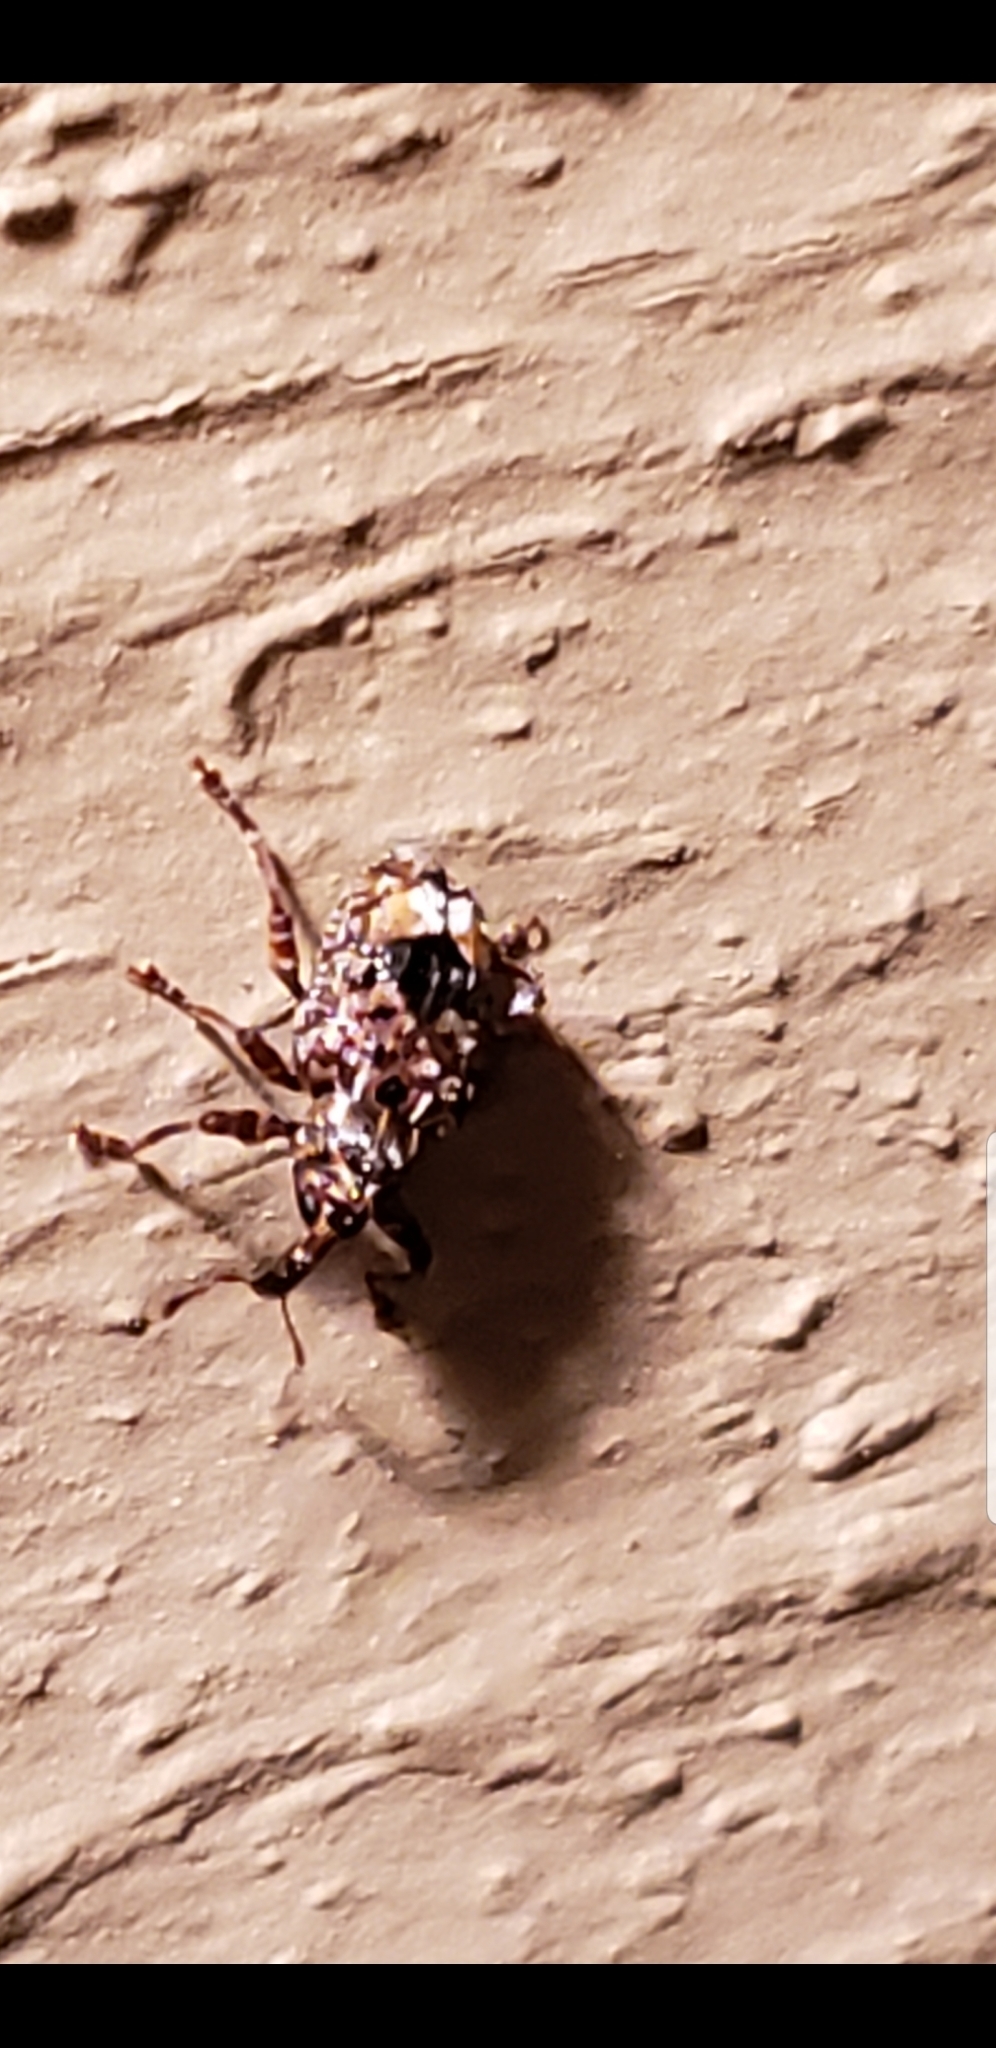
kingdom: Animalia
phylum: Arthropoda
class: Insecta
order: Coleoptera
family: Curculionidae
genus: Conotrachelus
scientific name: Conotrachelus nenuphar
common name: Plum curculio
